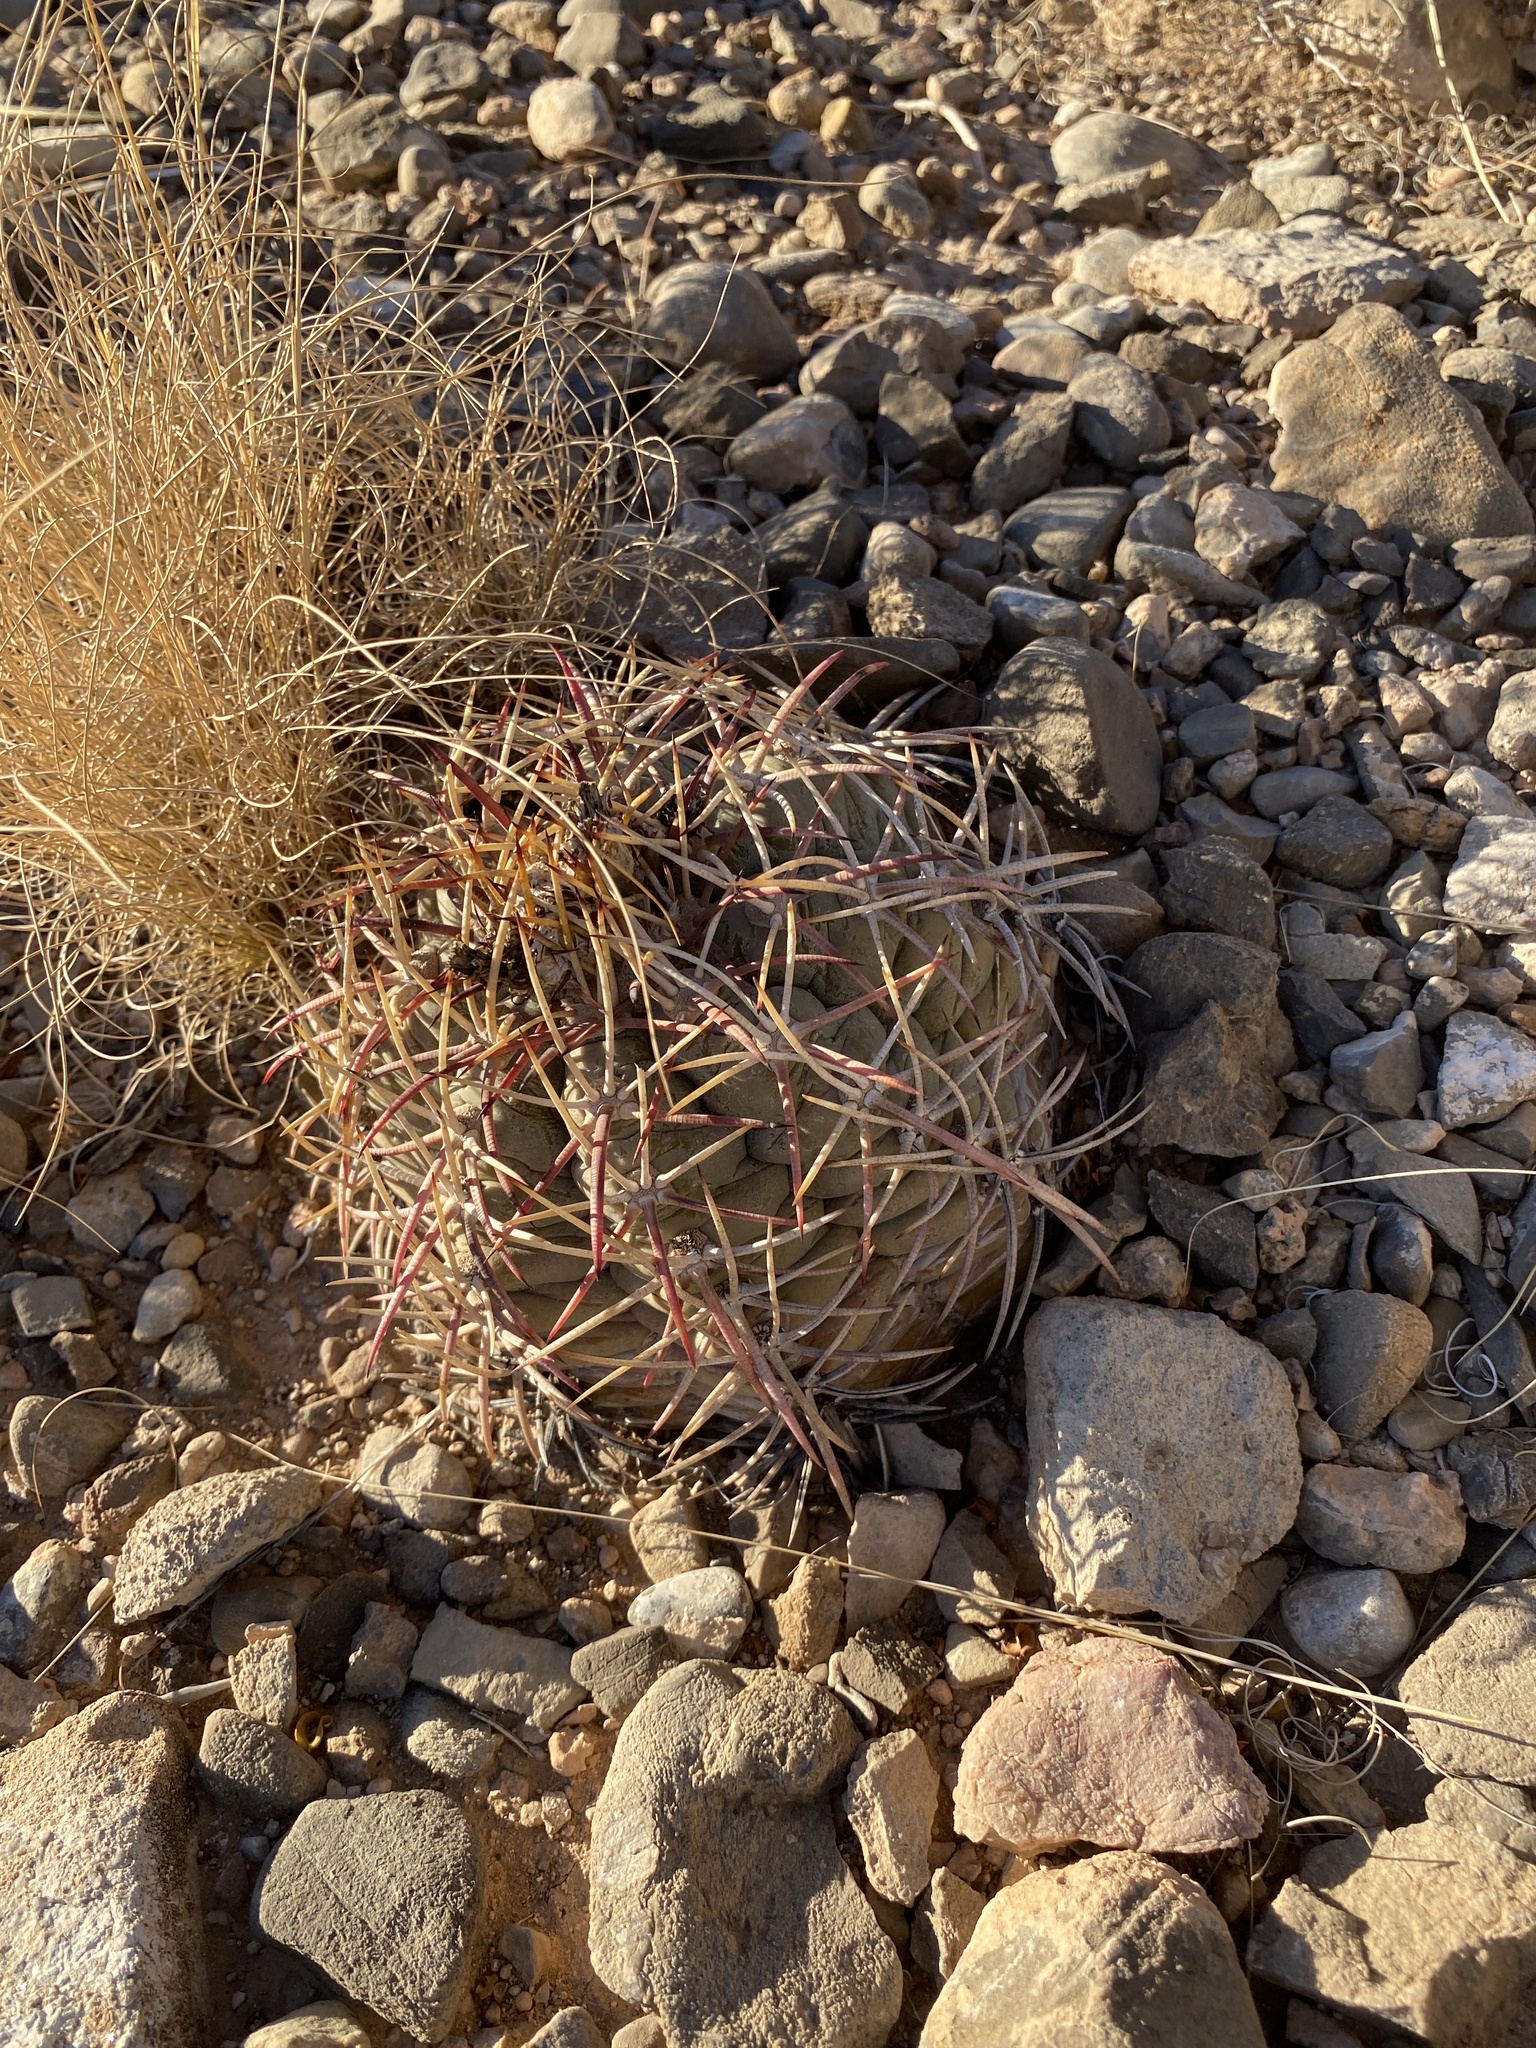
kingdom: Plantae
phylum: Tracheophyta
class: Magnoliopsida
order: Caryophyllales
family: Cactaceae
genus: Echinocactus
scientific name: Echinocactus horizonthalonius
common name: Devilshead
